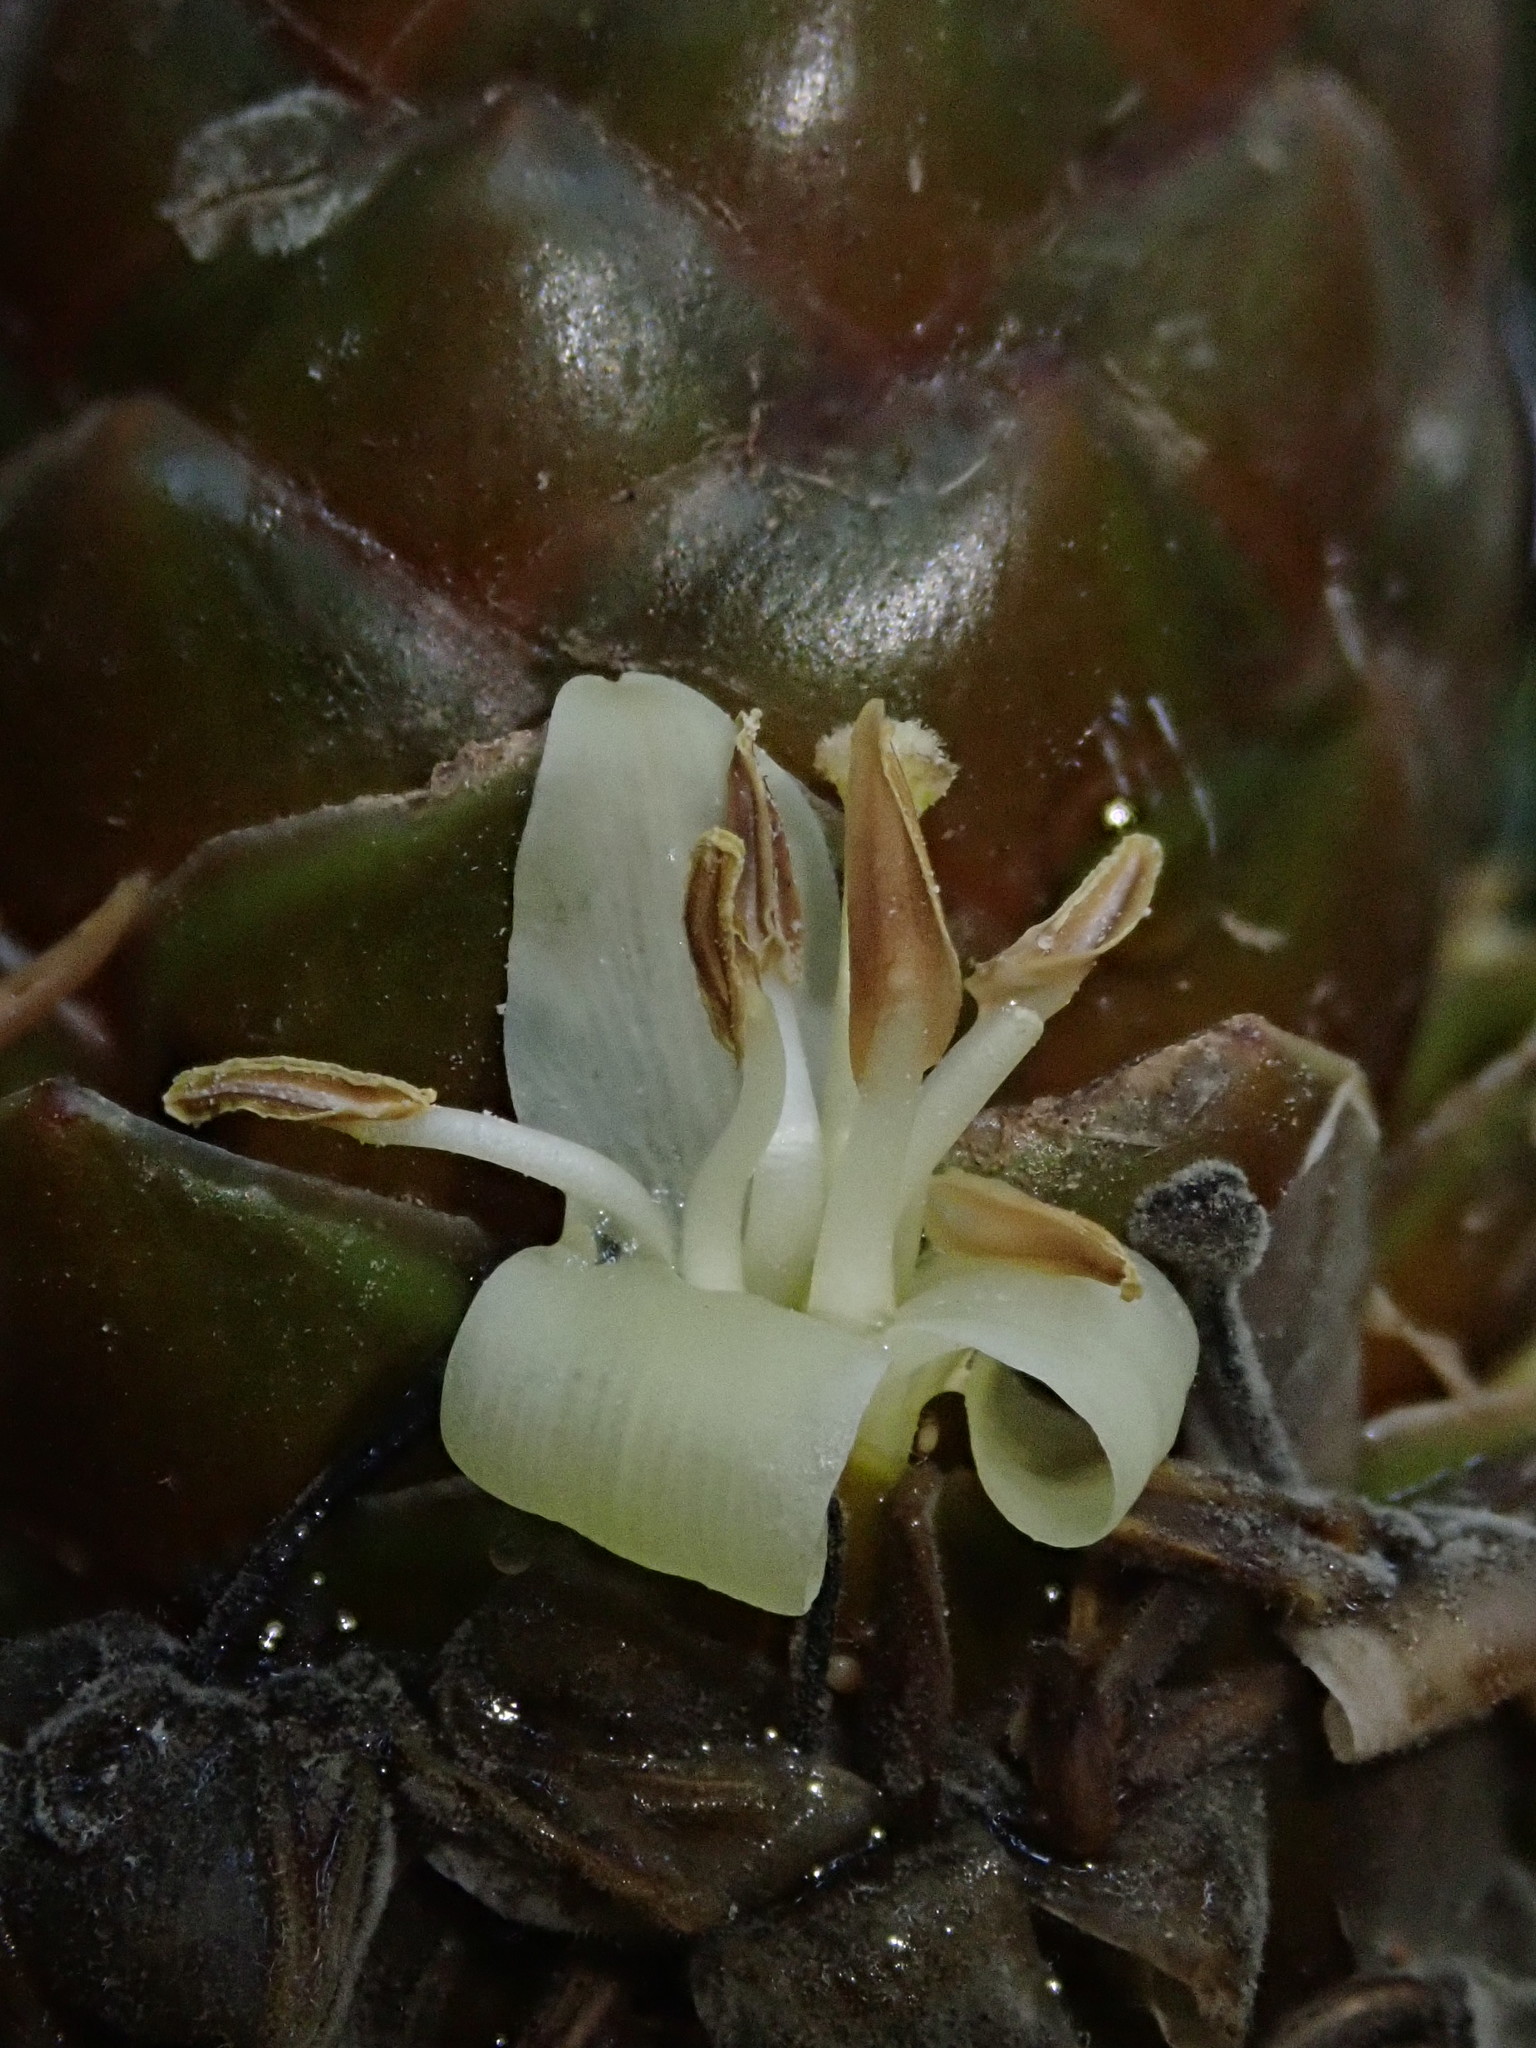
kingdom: Plantae
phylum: Tracheophyta
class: Liliopsida
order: Poales
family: Bromeliaceae
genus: Guzmania
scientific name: Guzmania coriostachya
